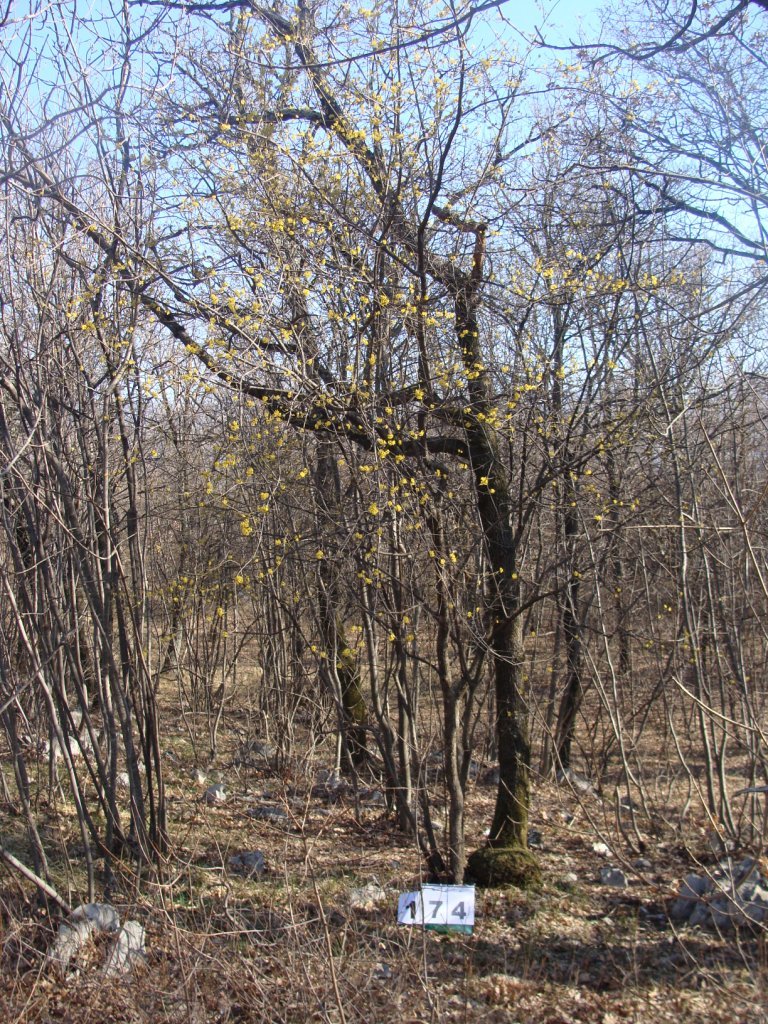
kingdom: Plantae
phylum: Tracheophyta
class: Magnoliopsida
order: Cornales
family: Cornaceae
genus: Cornus
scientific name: Cornus mas
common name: Cornelian-cherry
